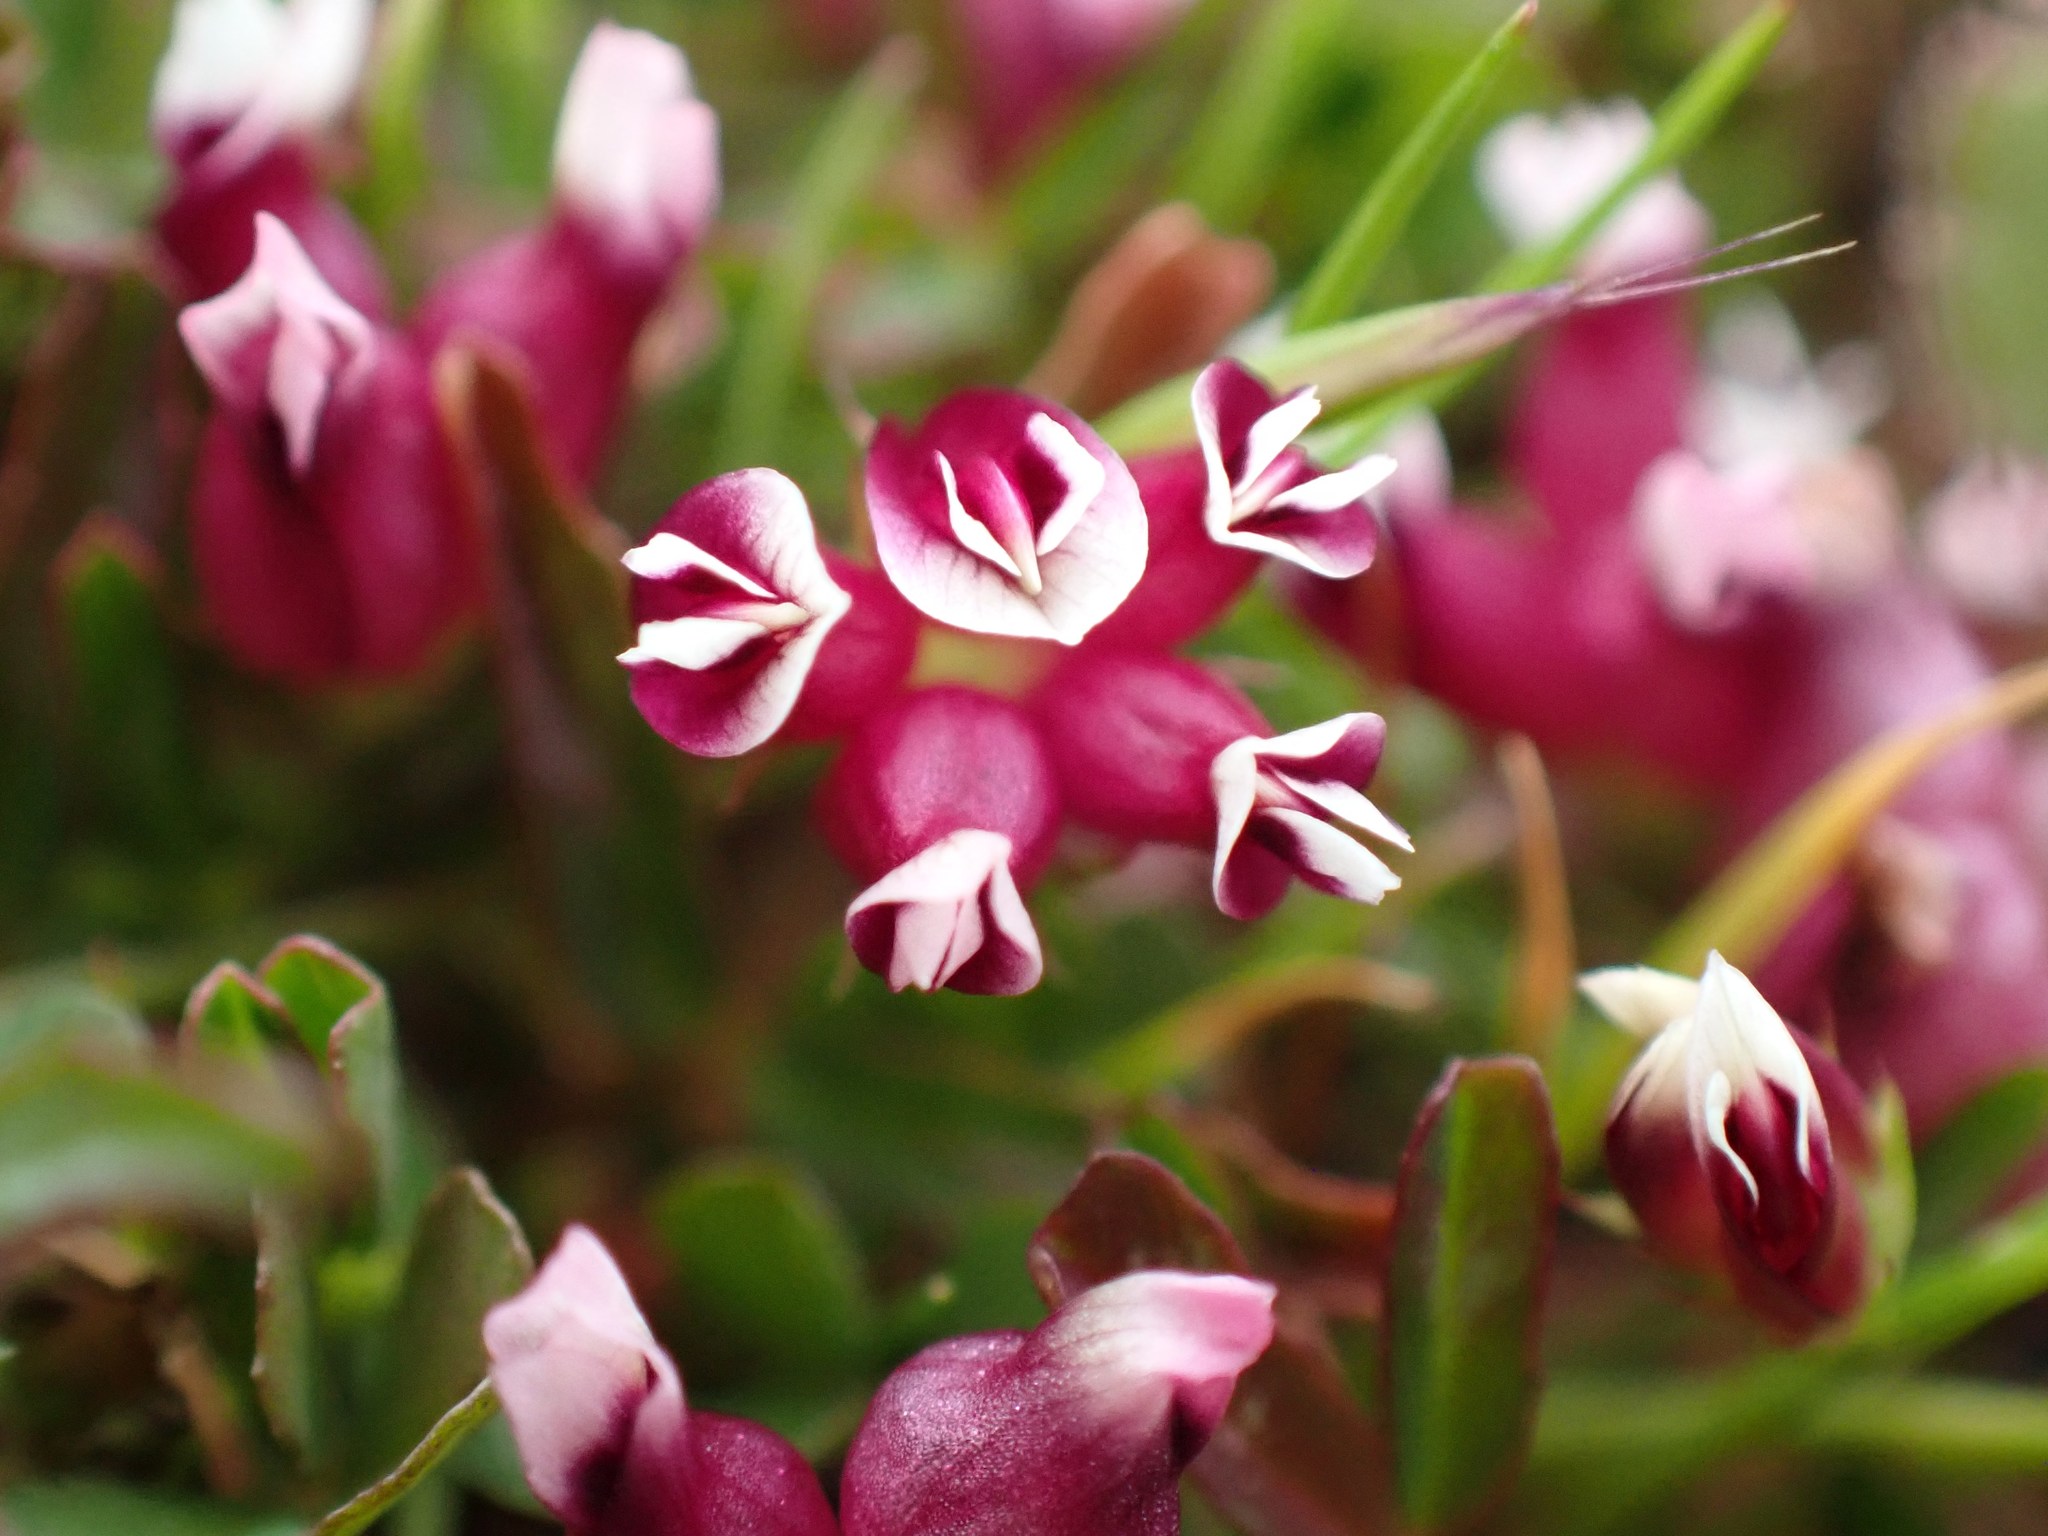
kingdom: Plantae
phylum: Tracheophyta
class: Magnoliopsida
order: Fabales
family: Fabaceae
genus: Trifolium
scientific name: Trifolium depauperatum
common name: Poverty clover
